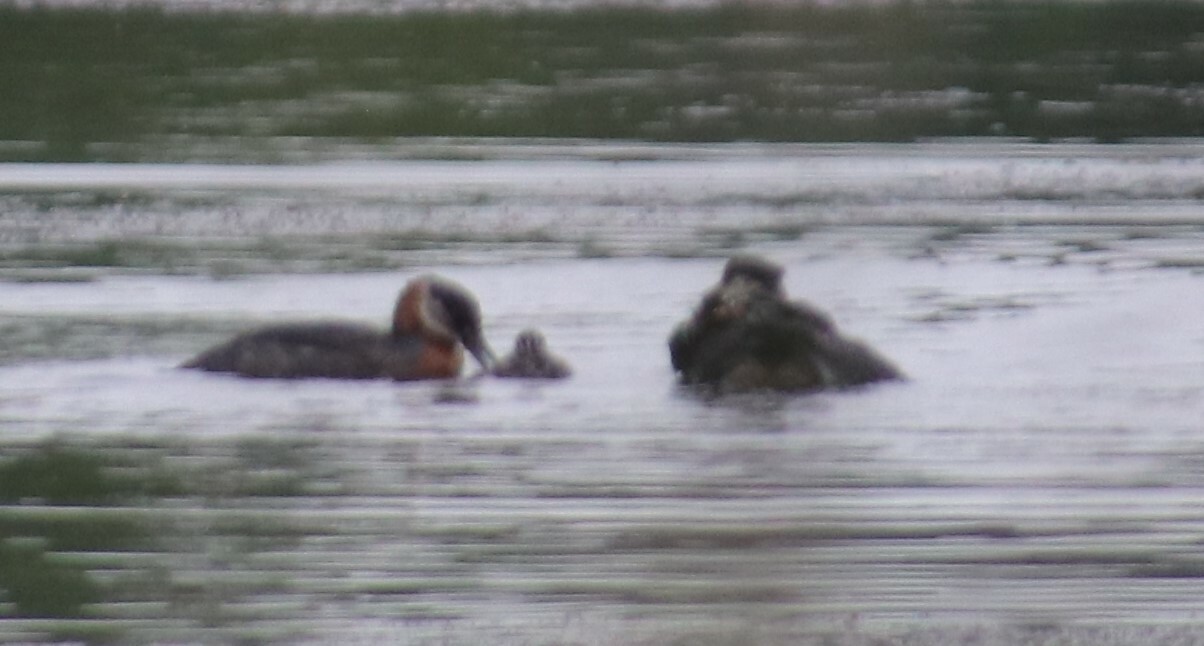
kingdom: Animalia
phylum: Chordata
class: Aves
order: Podicipediformes
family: Podicipedidae
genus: Podiceps
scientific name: Podiceps grisegena
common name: Red-necked grebe
